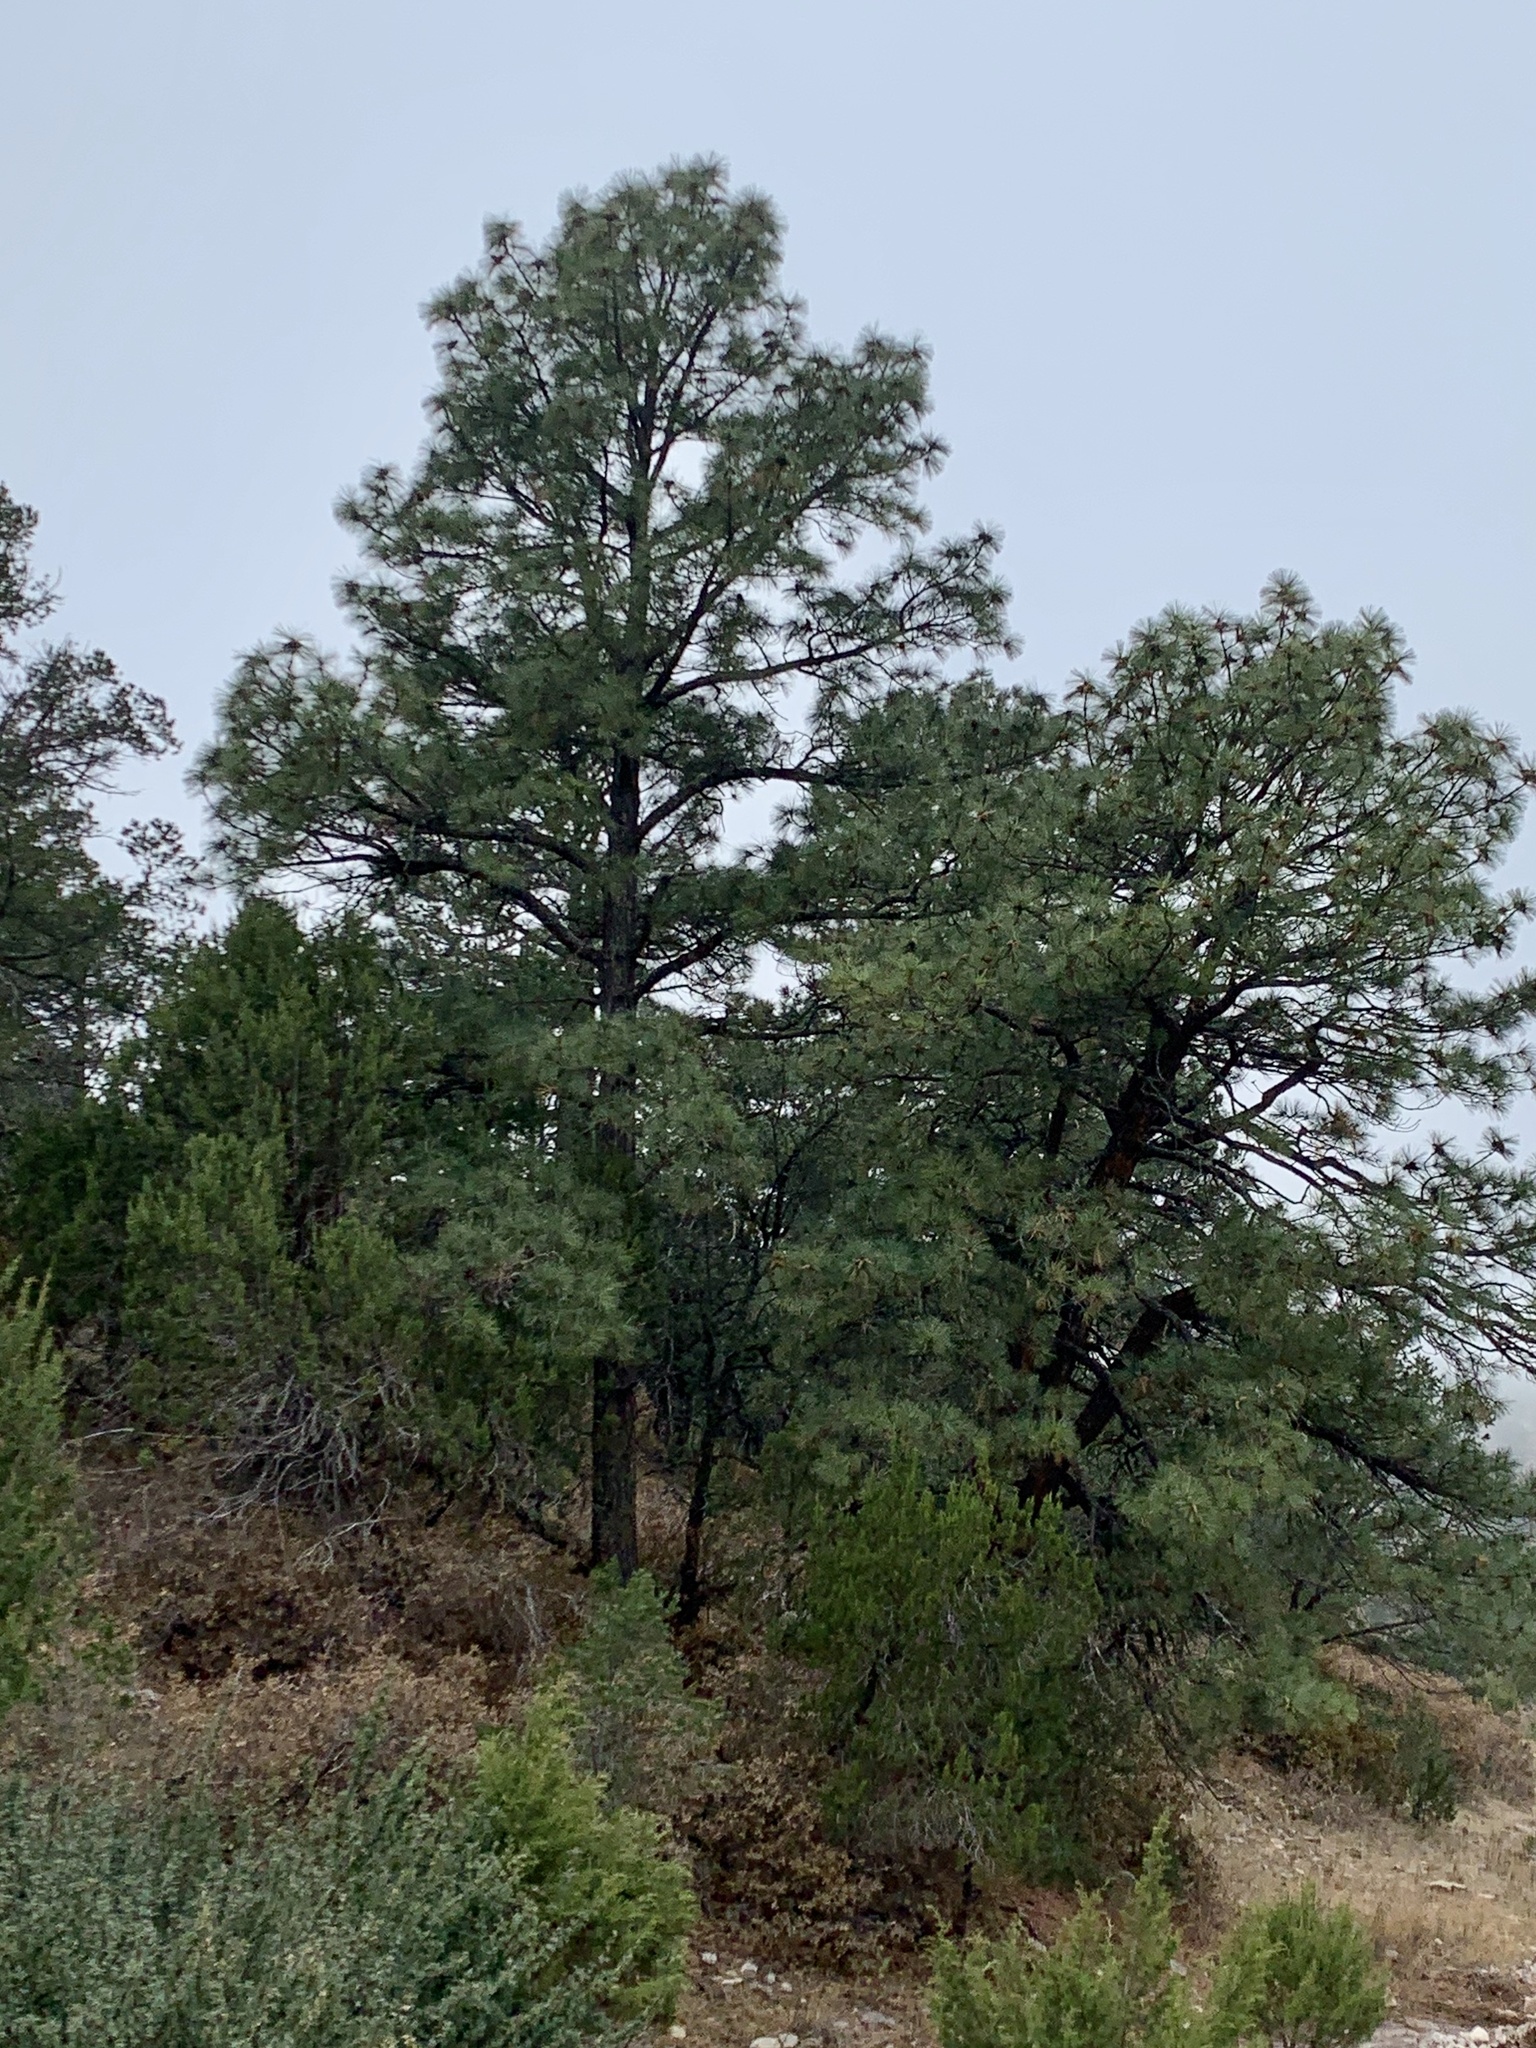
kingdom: Plantae
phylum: Tracheophyta
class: Pinopsida
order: Pinales
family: Pinaceae
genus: Pinus
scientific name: Pinus ponderosa
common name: Western yellow-pine
